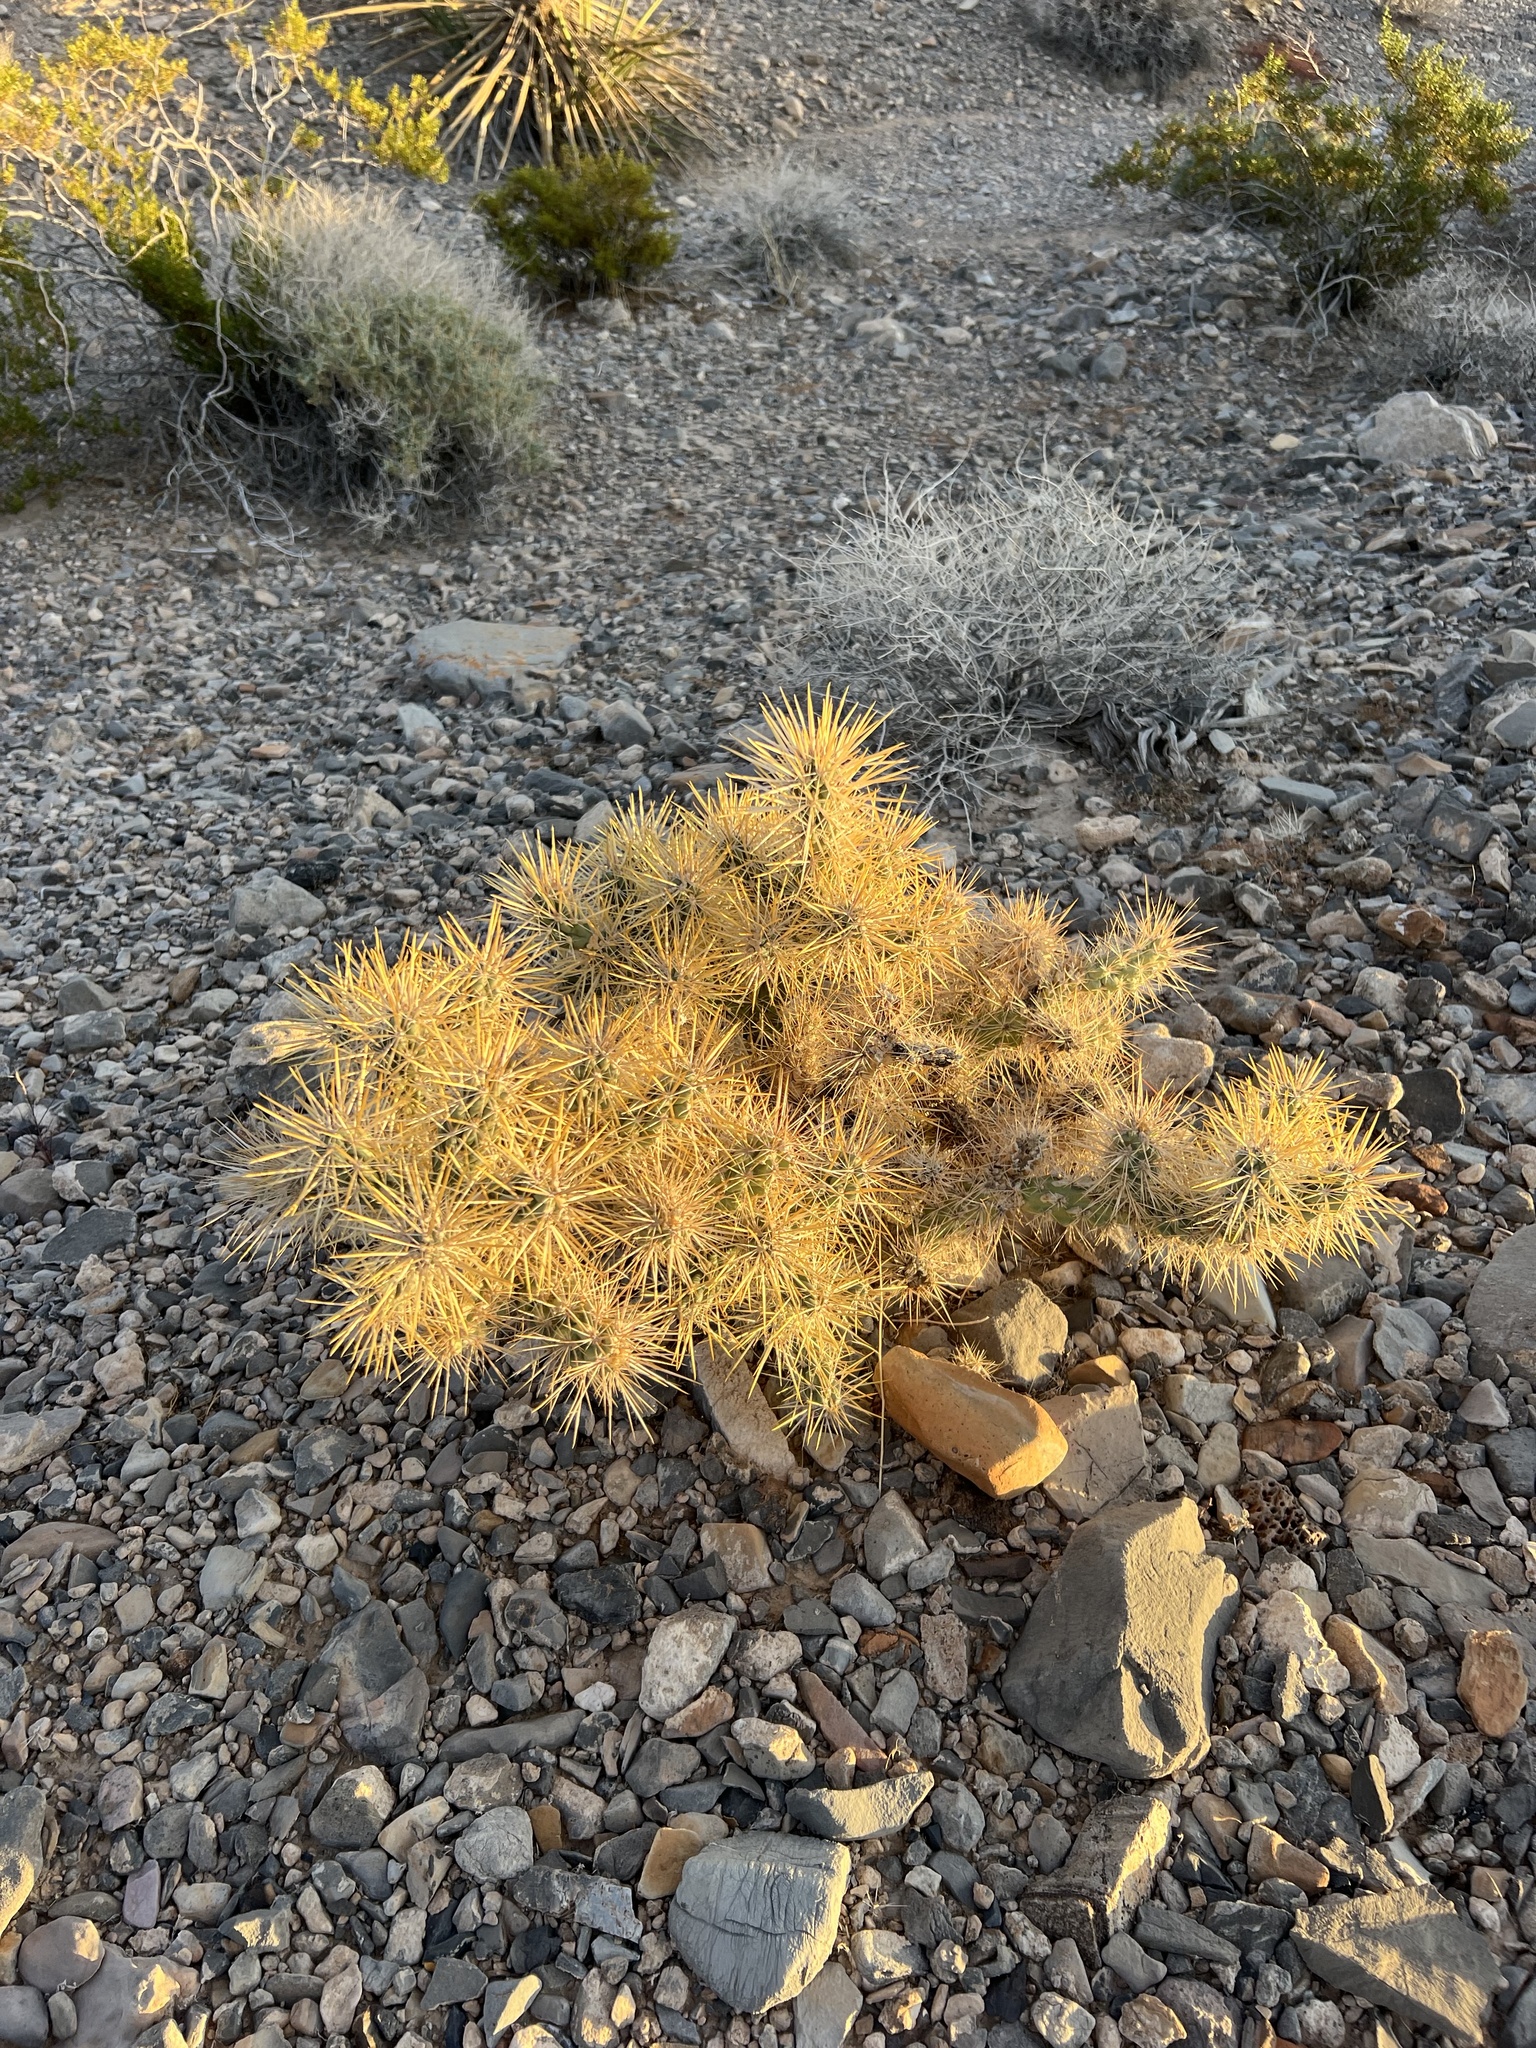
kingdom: Plantae
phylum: Tracheophyta
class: Magnoliopsida
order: Caryophyllales
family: Cactaceae
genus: Cylindropuntia
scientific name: Cylindropuntia echinocarpa
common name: Ground cholla
